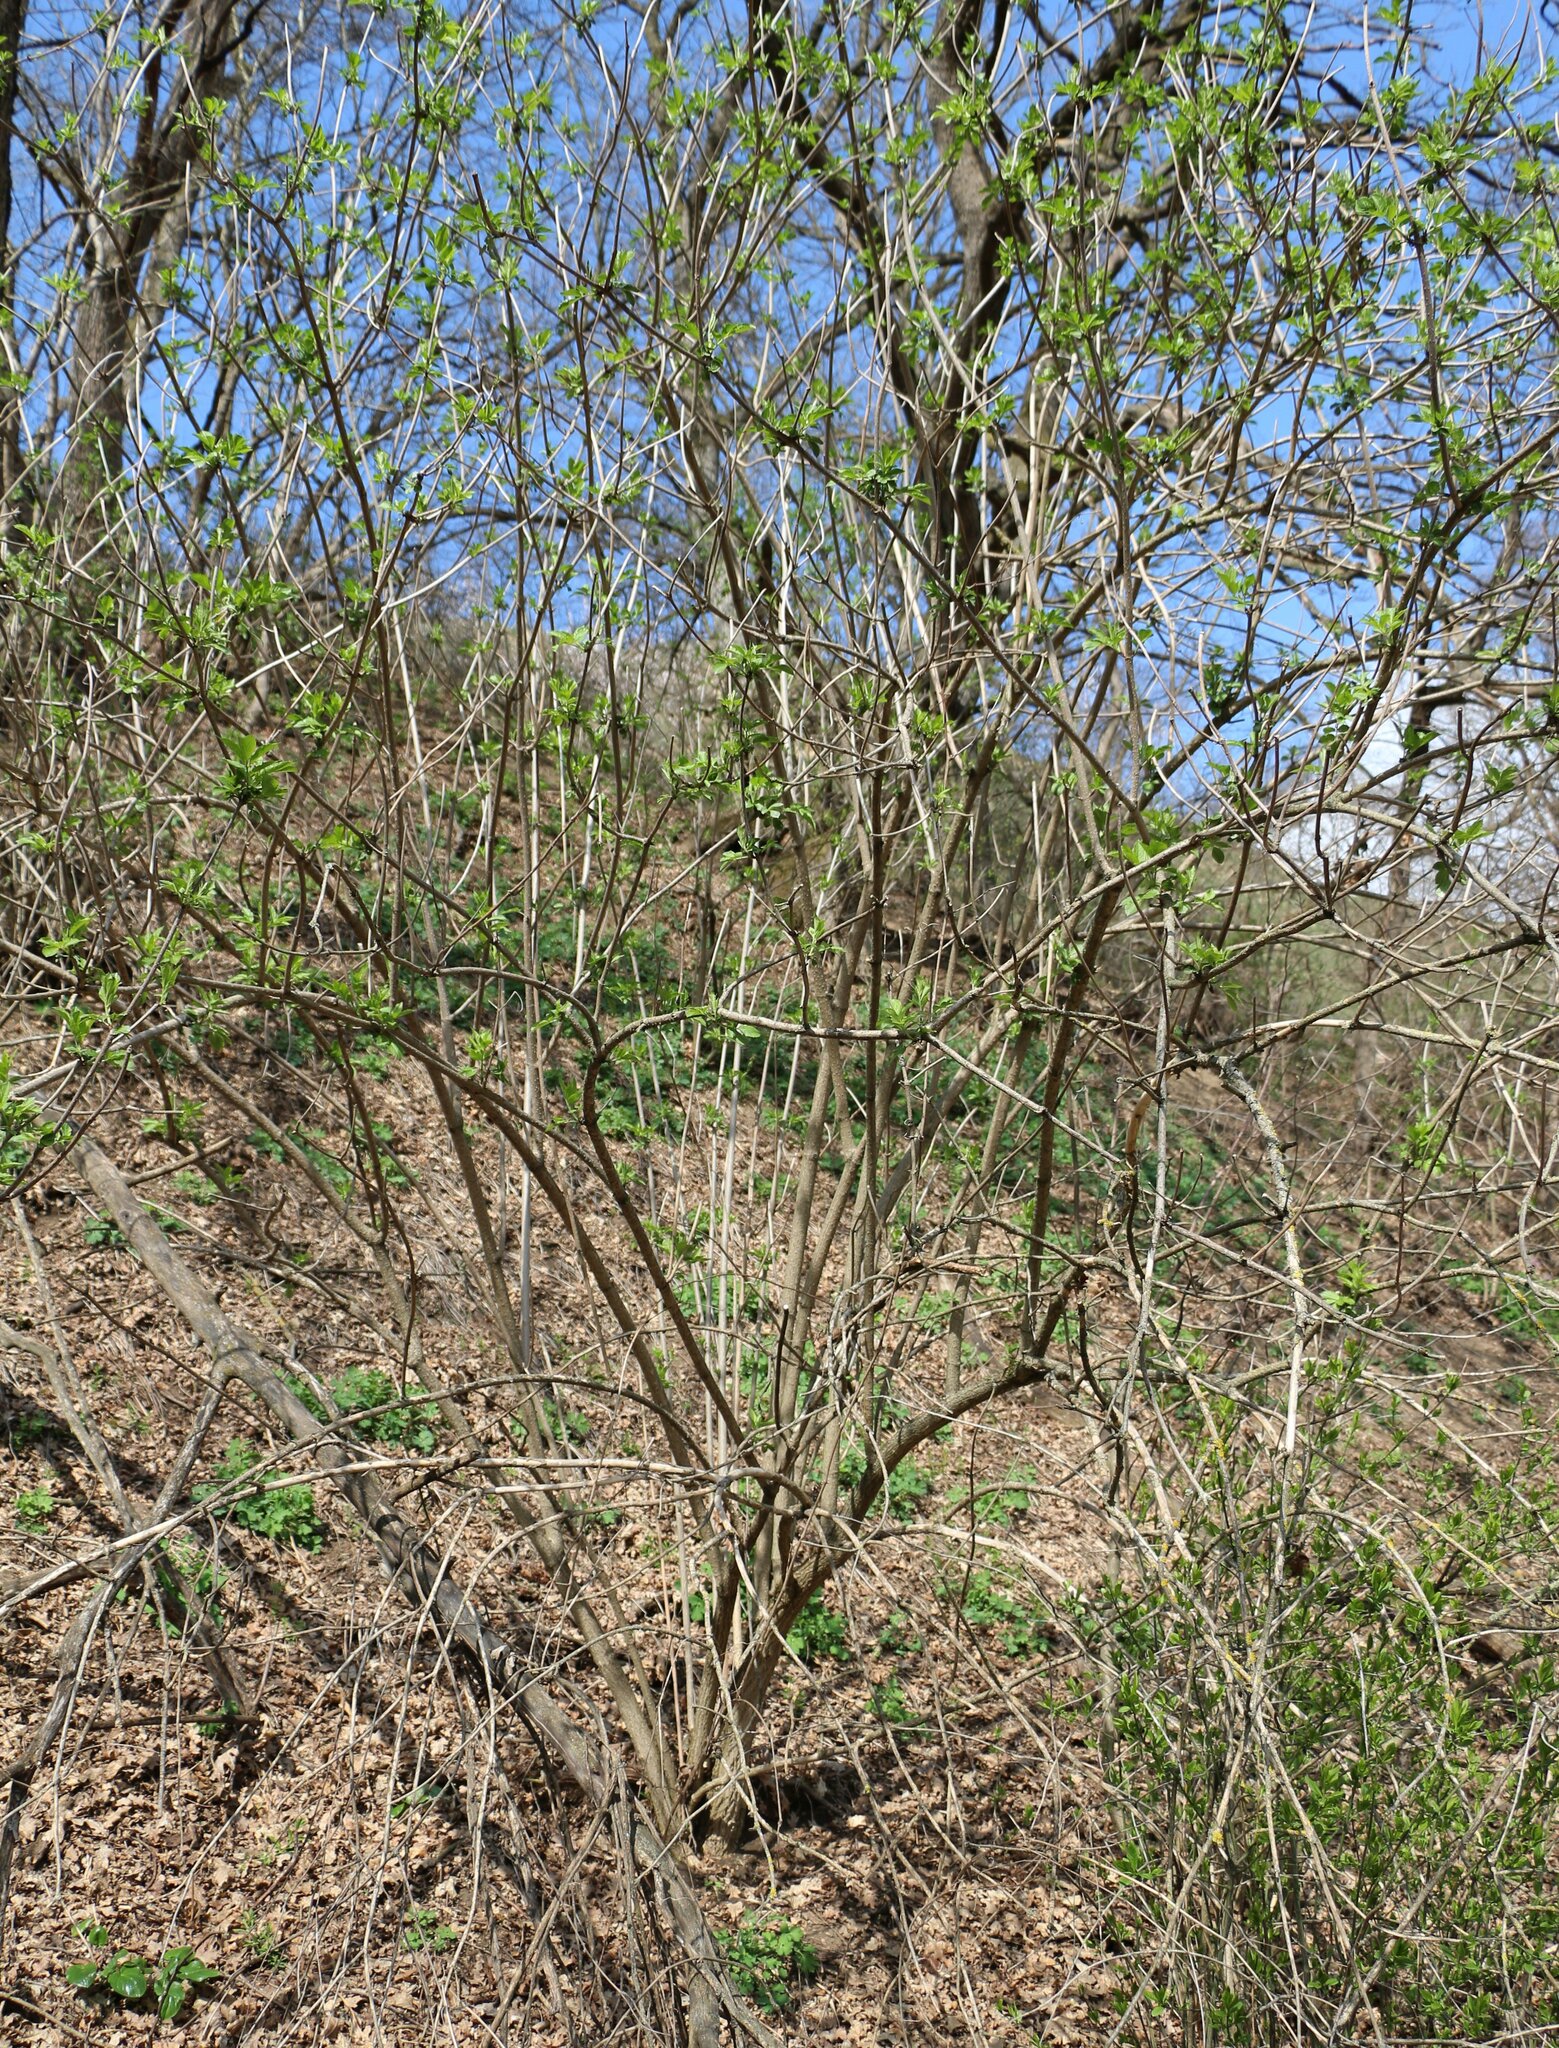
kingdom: Plantae
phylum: Tracheophyta
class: Magnoliopsida
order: Dipsacales
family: Viburnaceae
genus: Sambucus
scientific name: Sambucus nigra
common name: Elder
